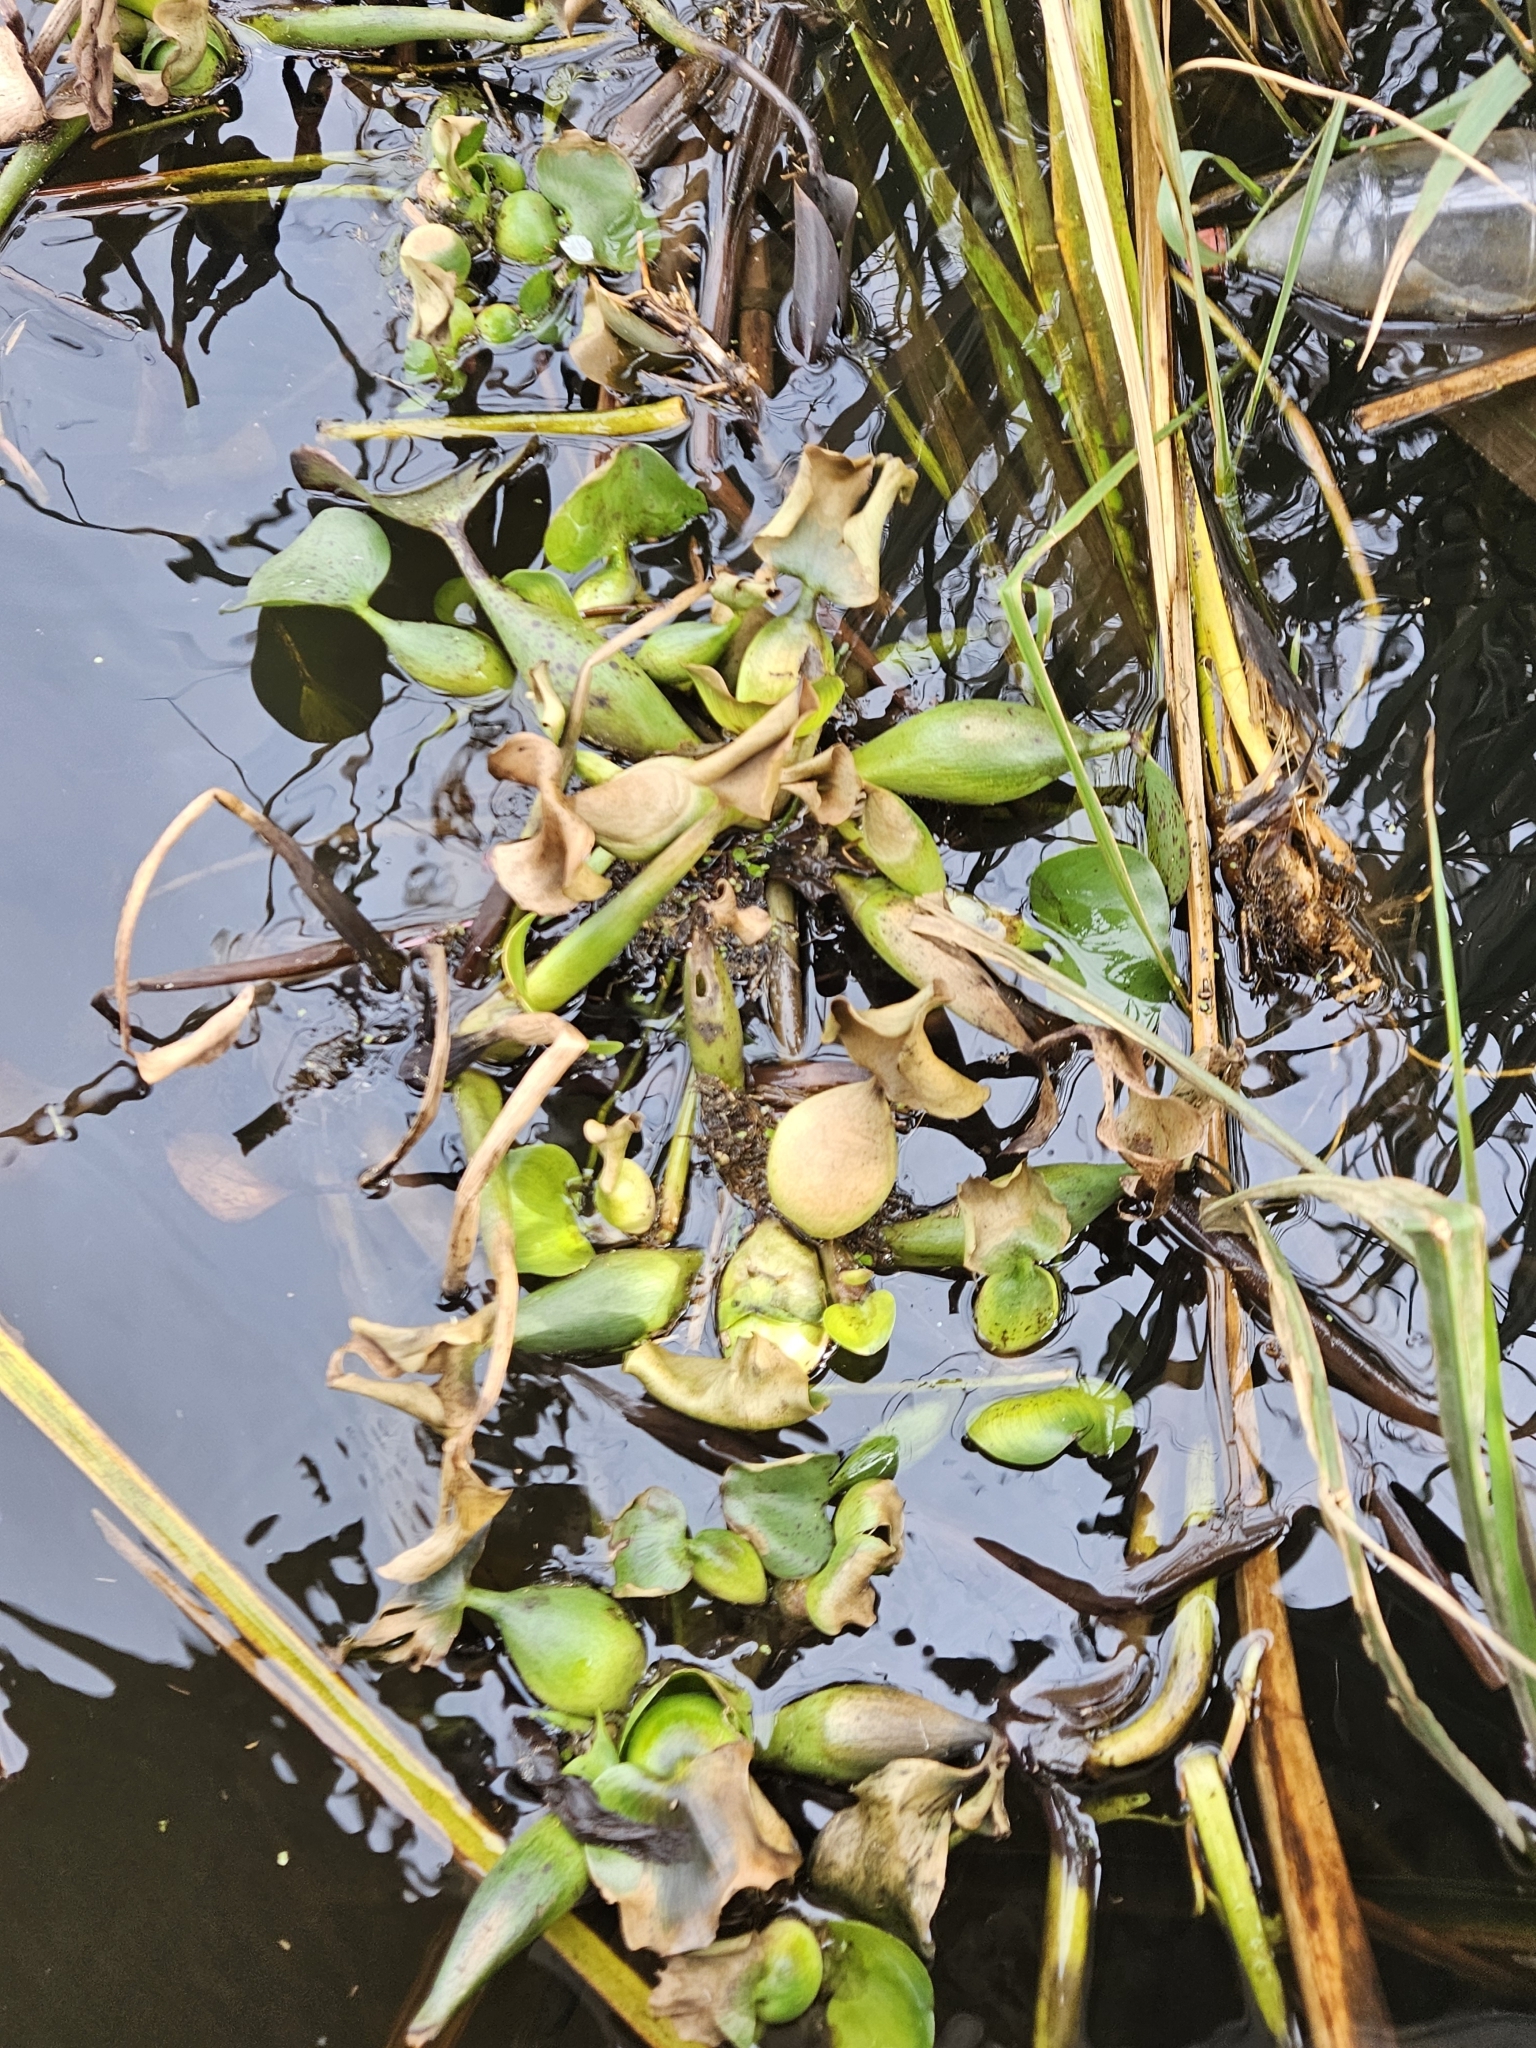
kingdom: Plantae
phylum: Tracheophyta
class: Liliopsida
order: Commelinales
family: Pontederiaceae
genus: Pontederia
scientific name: Pontederia crassipes
